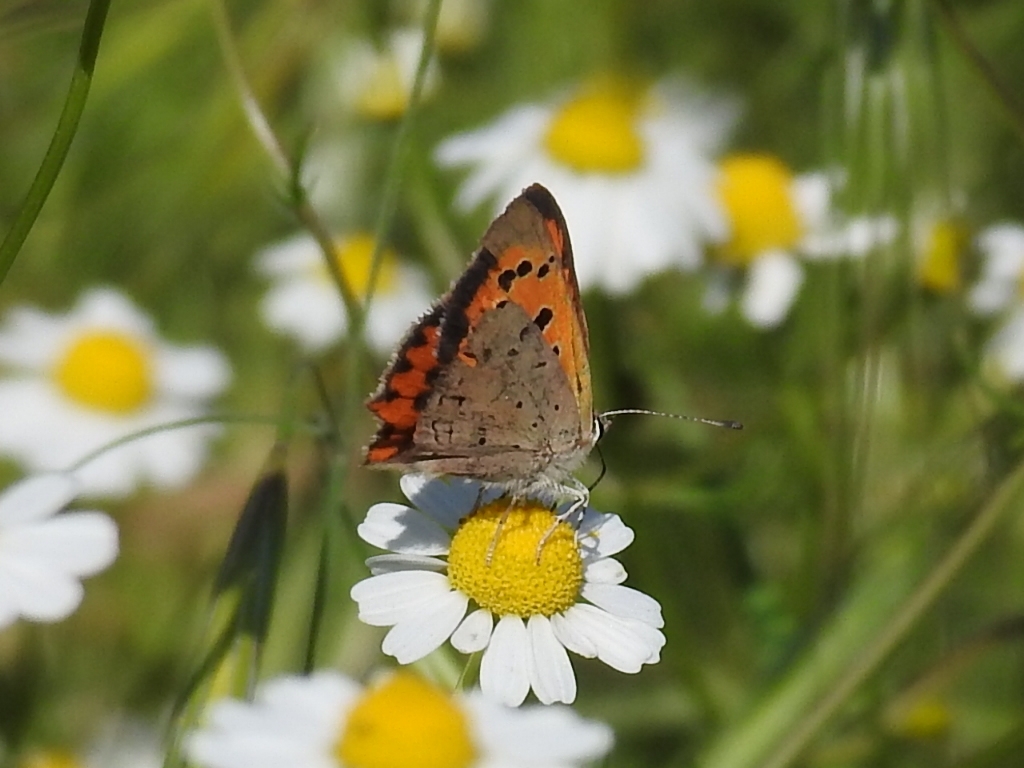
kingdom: Animalia
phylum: Arthropoda
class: Insecta
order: Lepidoptera
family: Lycaenidae
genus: Lycaena
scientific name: Lycaena phlaeas
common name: Small copper
